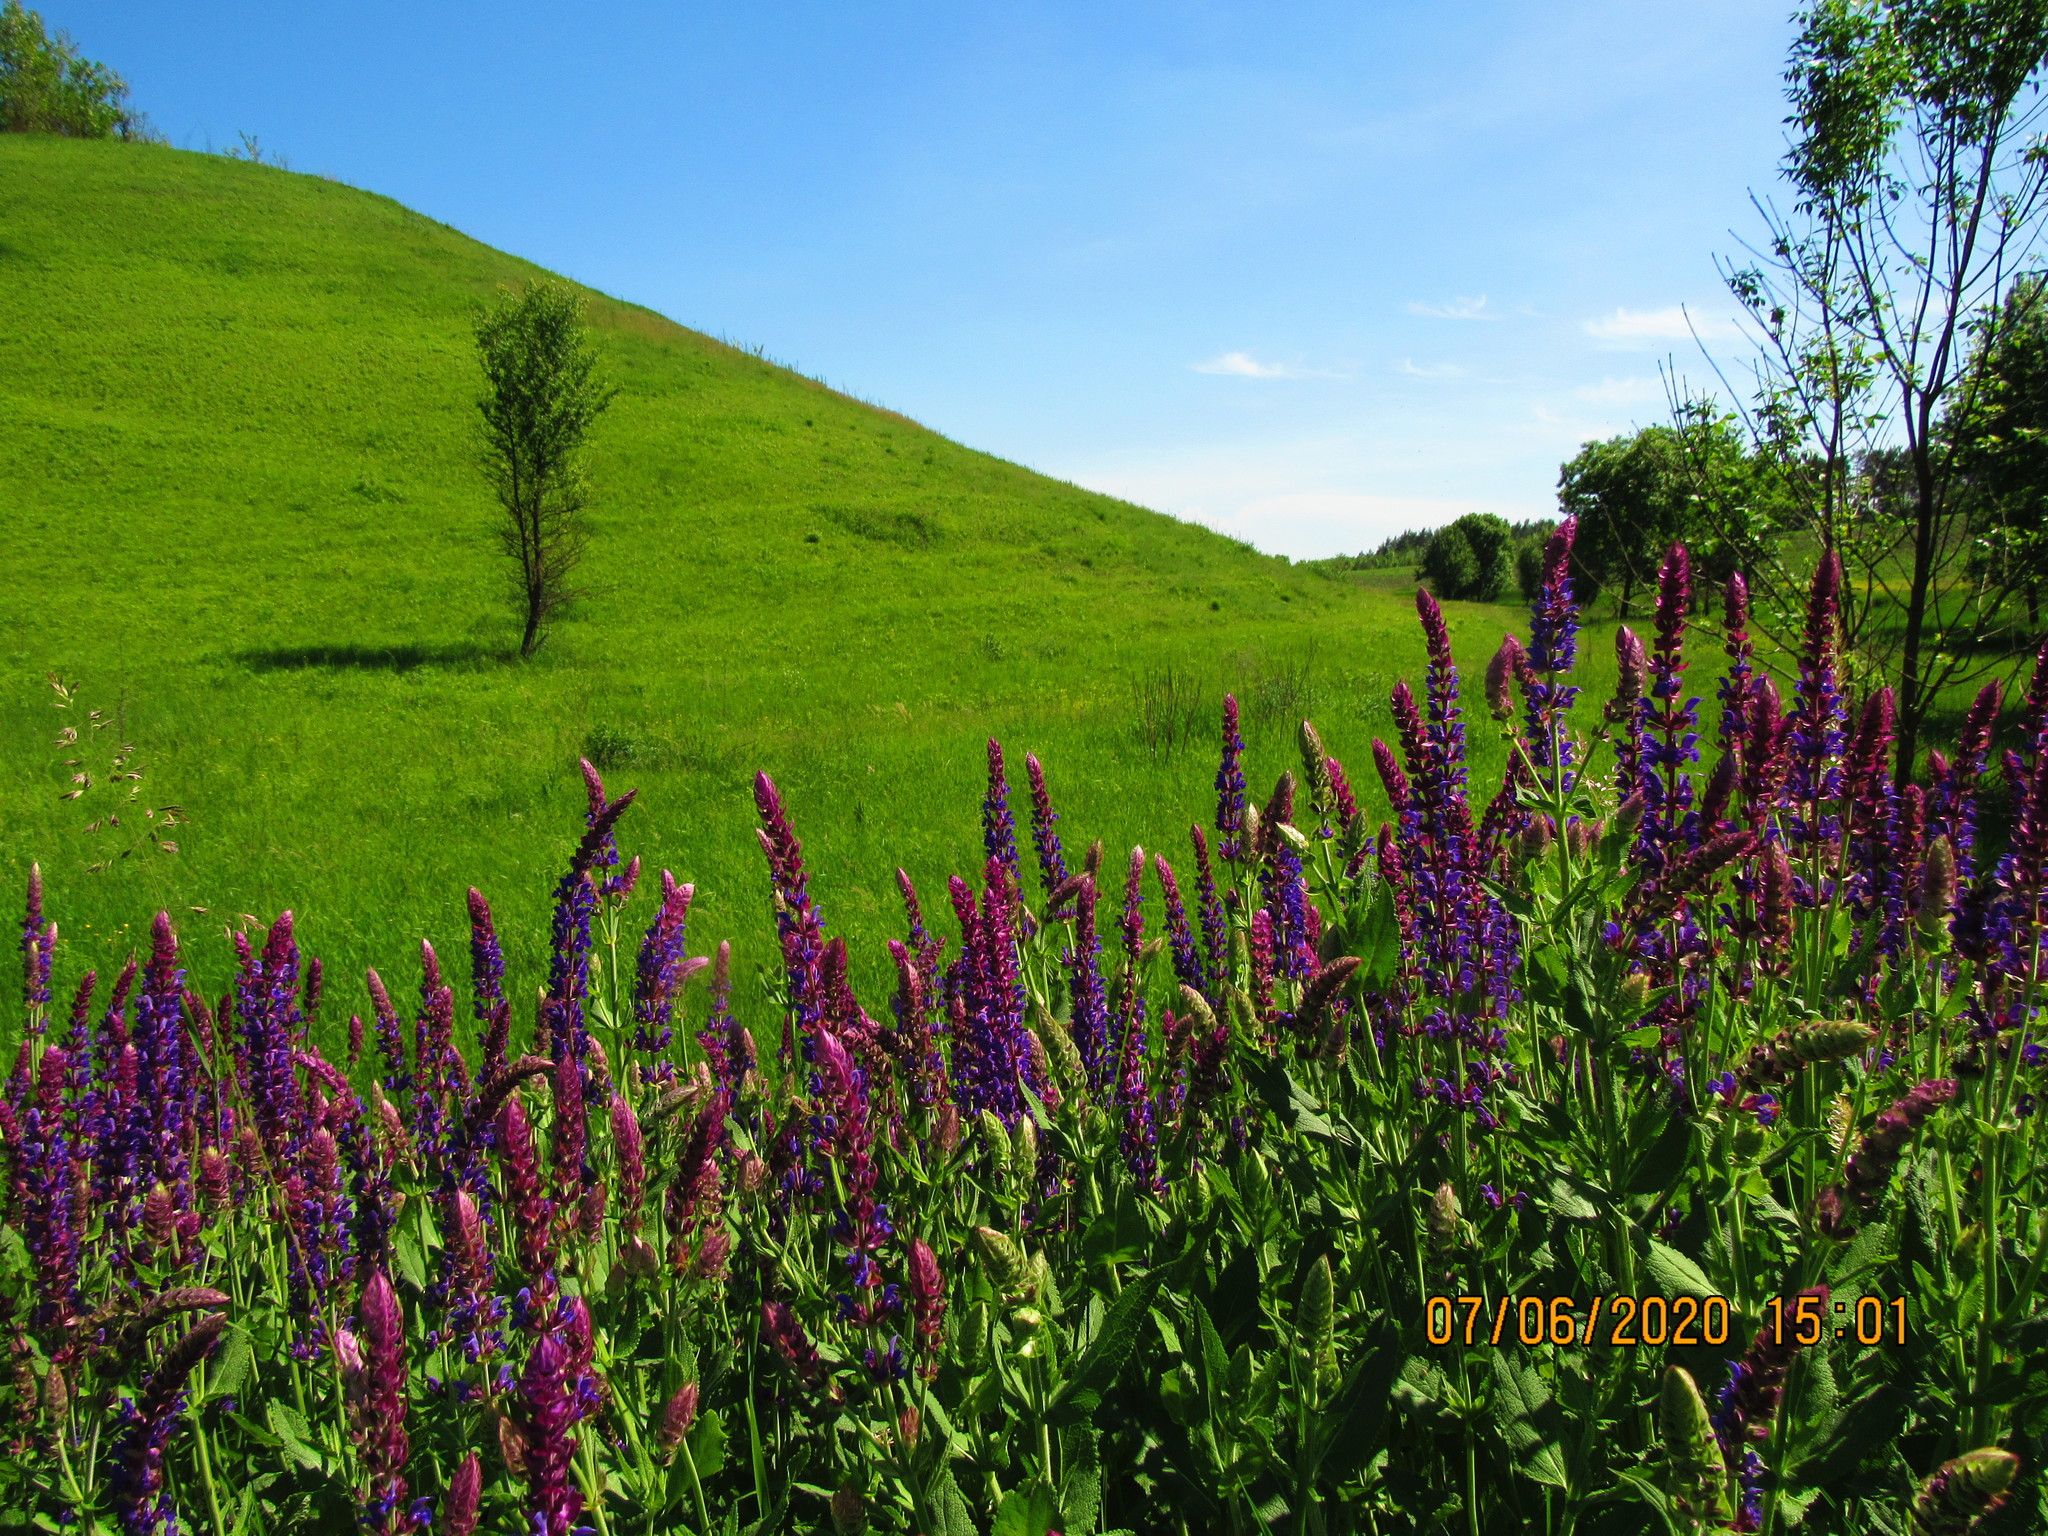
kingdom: Plantae
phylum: Tracheophyta
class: Magnoliopsida
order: Lamiales
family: Lamiaceae
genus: Salvia
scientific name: Salvia nemorosa
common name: Balkan clary
